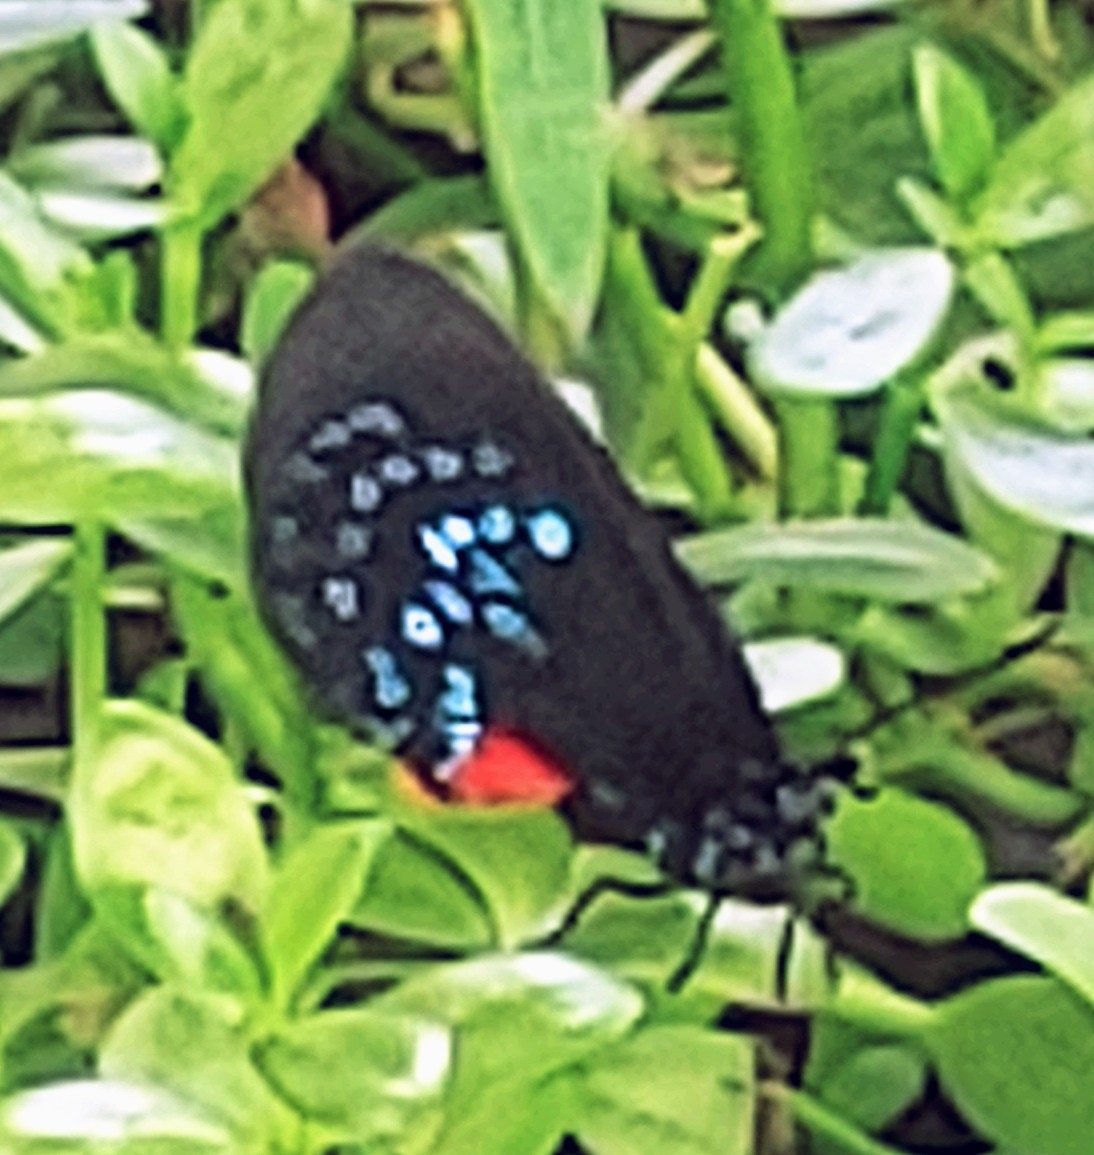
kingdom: Animalia
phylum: Arthropoda
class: Insecta
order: Lepidoptera
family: Lycaenidae
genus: Eumaeus
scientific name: Eumaeus atala
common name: Atala
